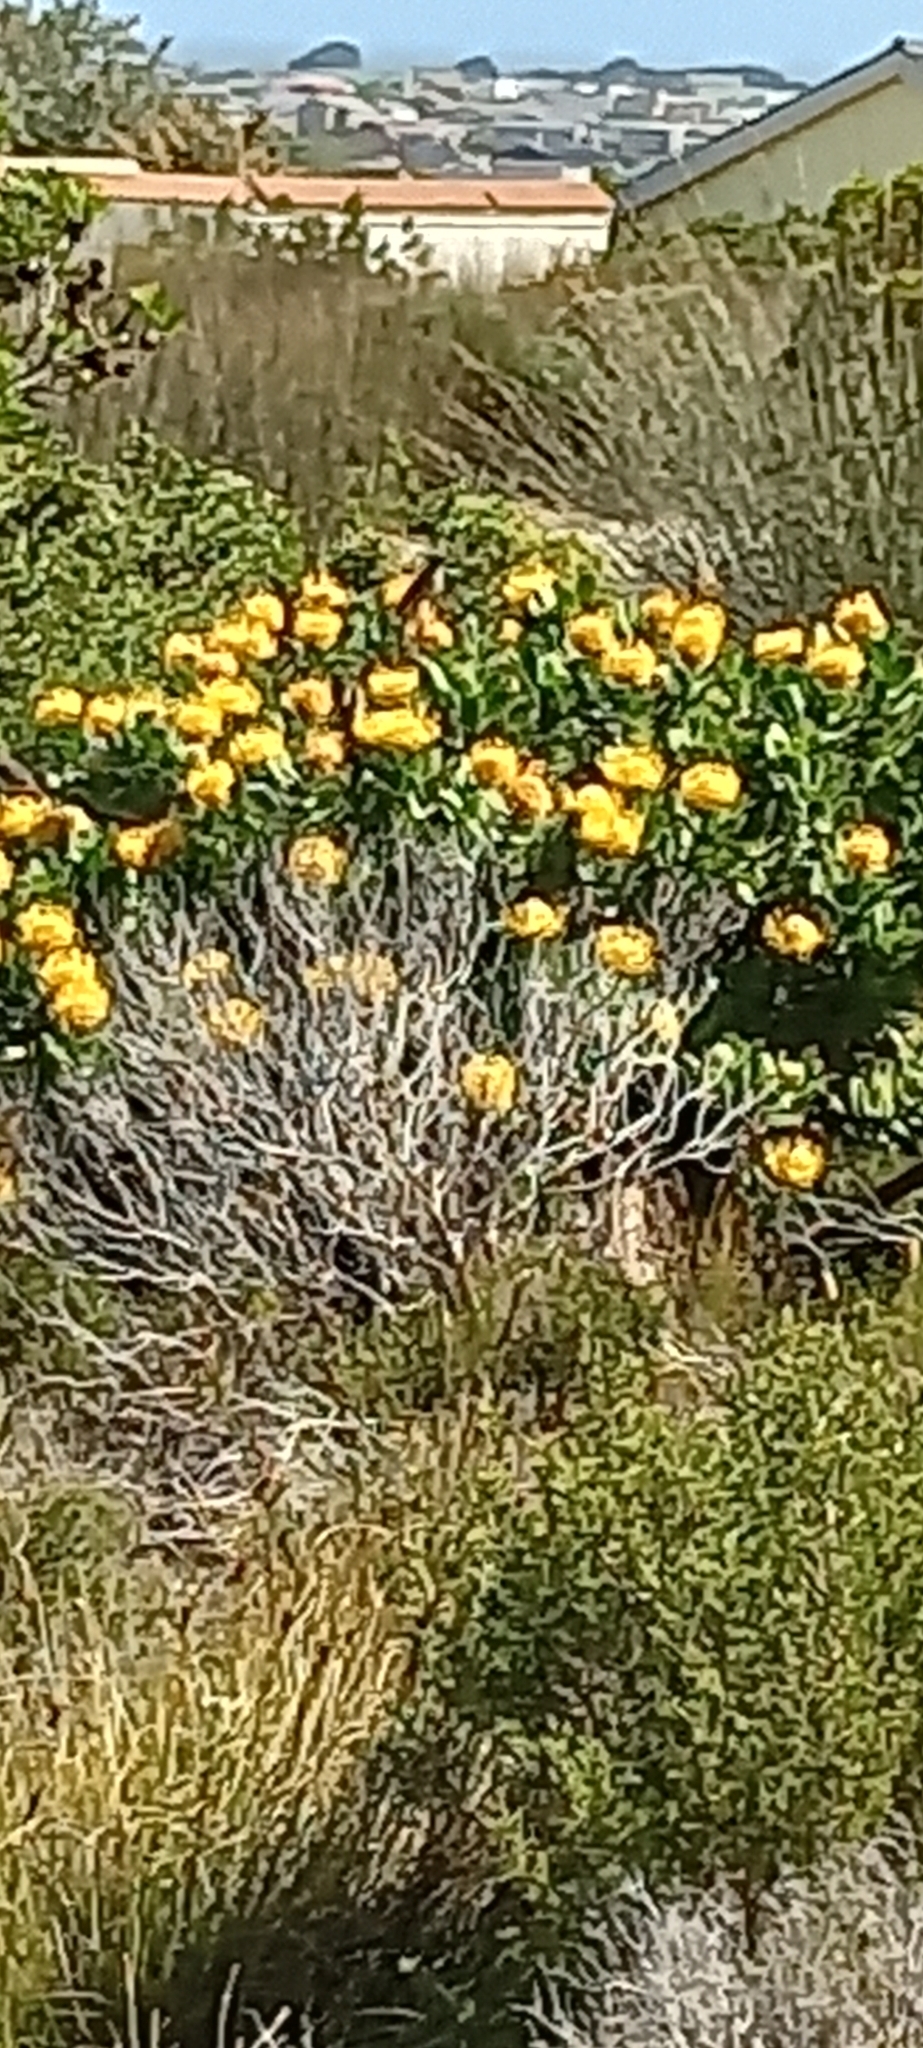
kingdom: Animalia
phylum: Chordata
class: Aves
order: Passeriformes
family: Promeropidae
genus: Promerops
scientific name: Promerops cafer
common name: Cape sugarbird
